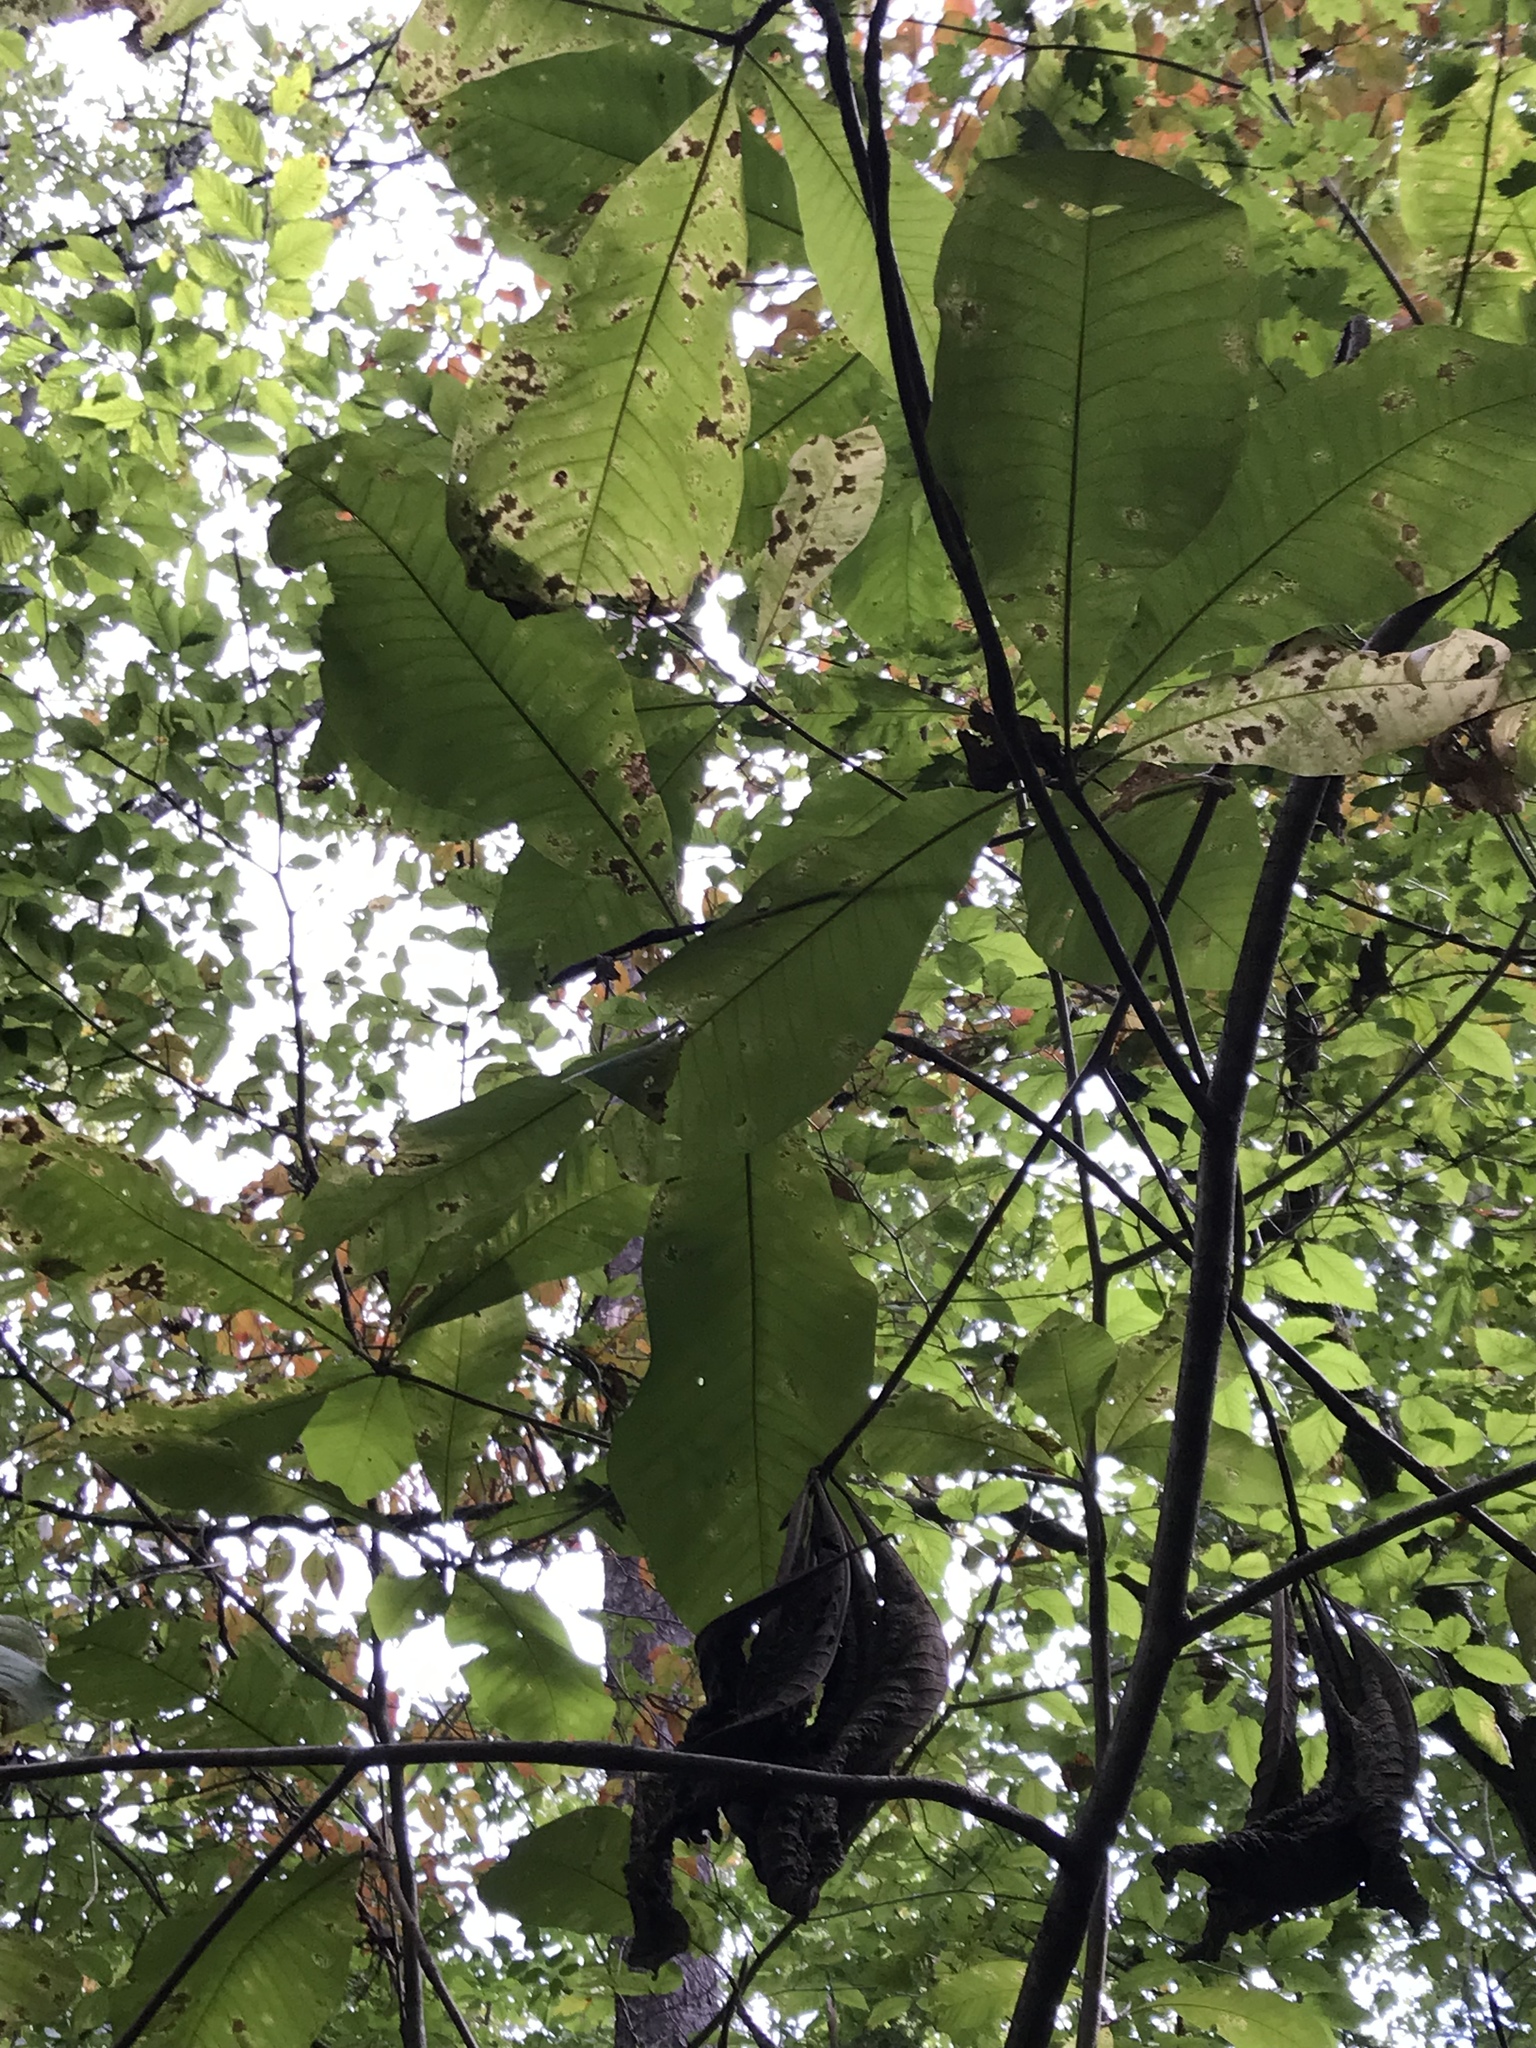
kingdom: Plantae
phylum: Tracheophyta
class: Magnoliopsida
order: Magnoliales
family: Magnoliaceae
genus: Magnolia
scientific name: Magnolia tripetala
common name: Umbrella magnolia
